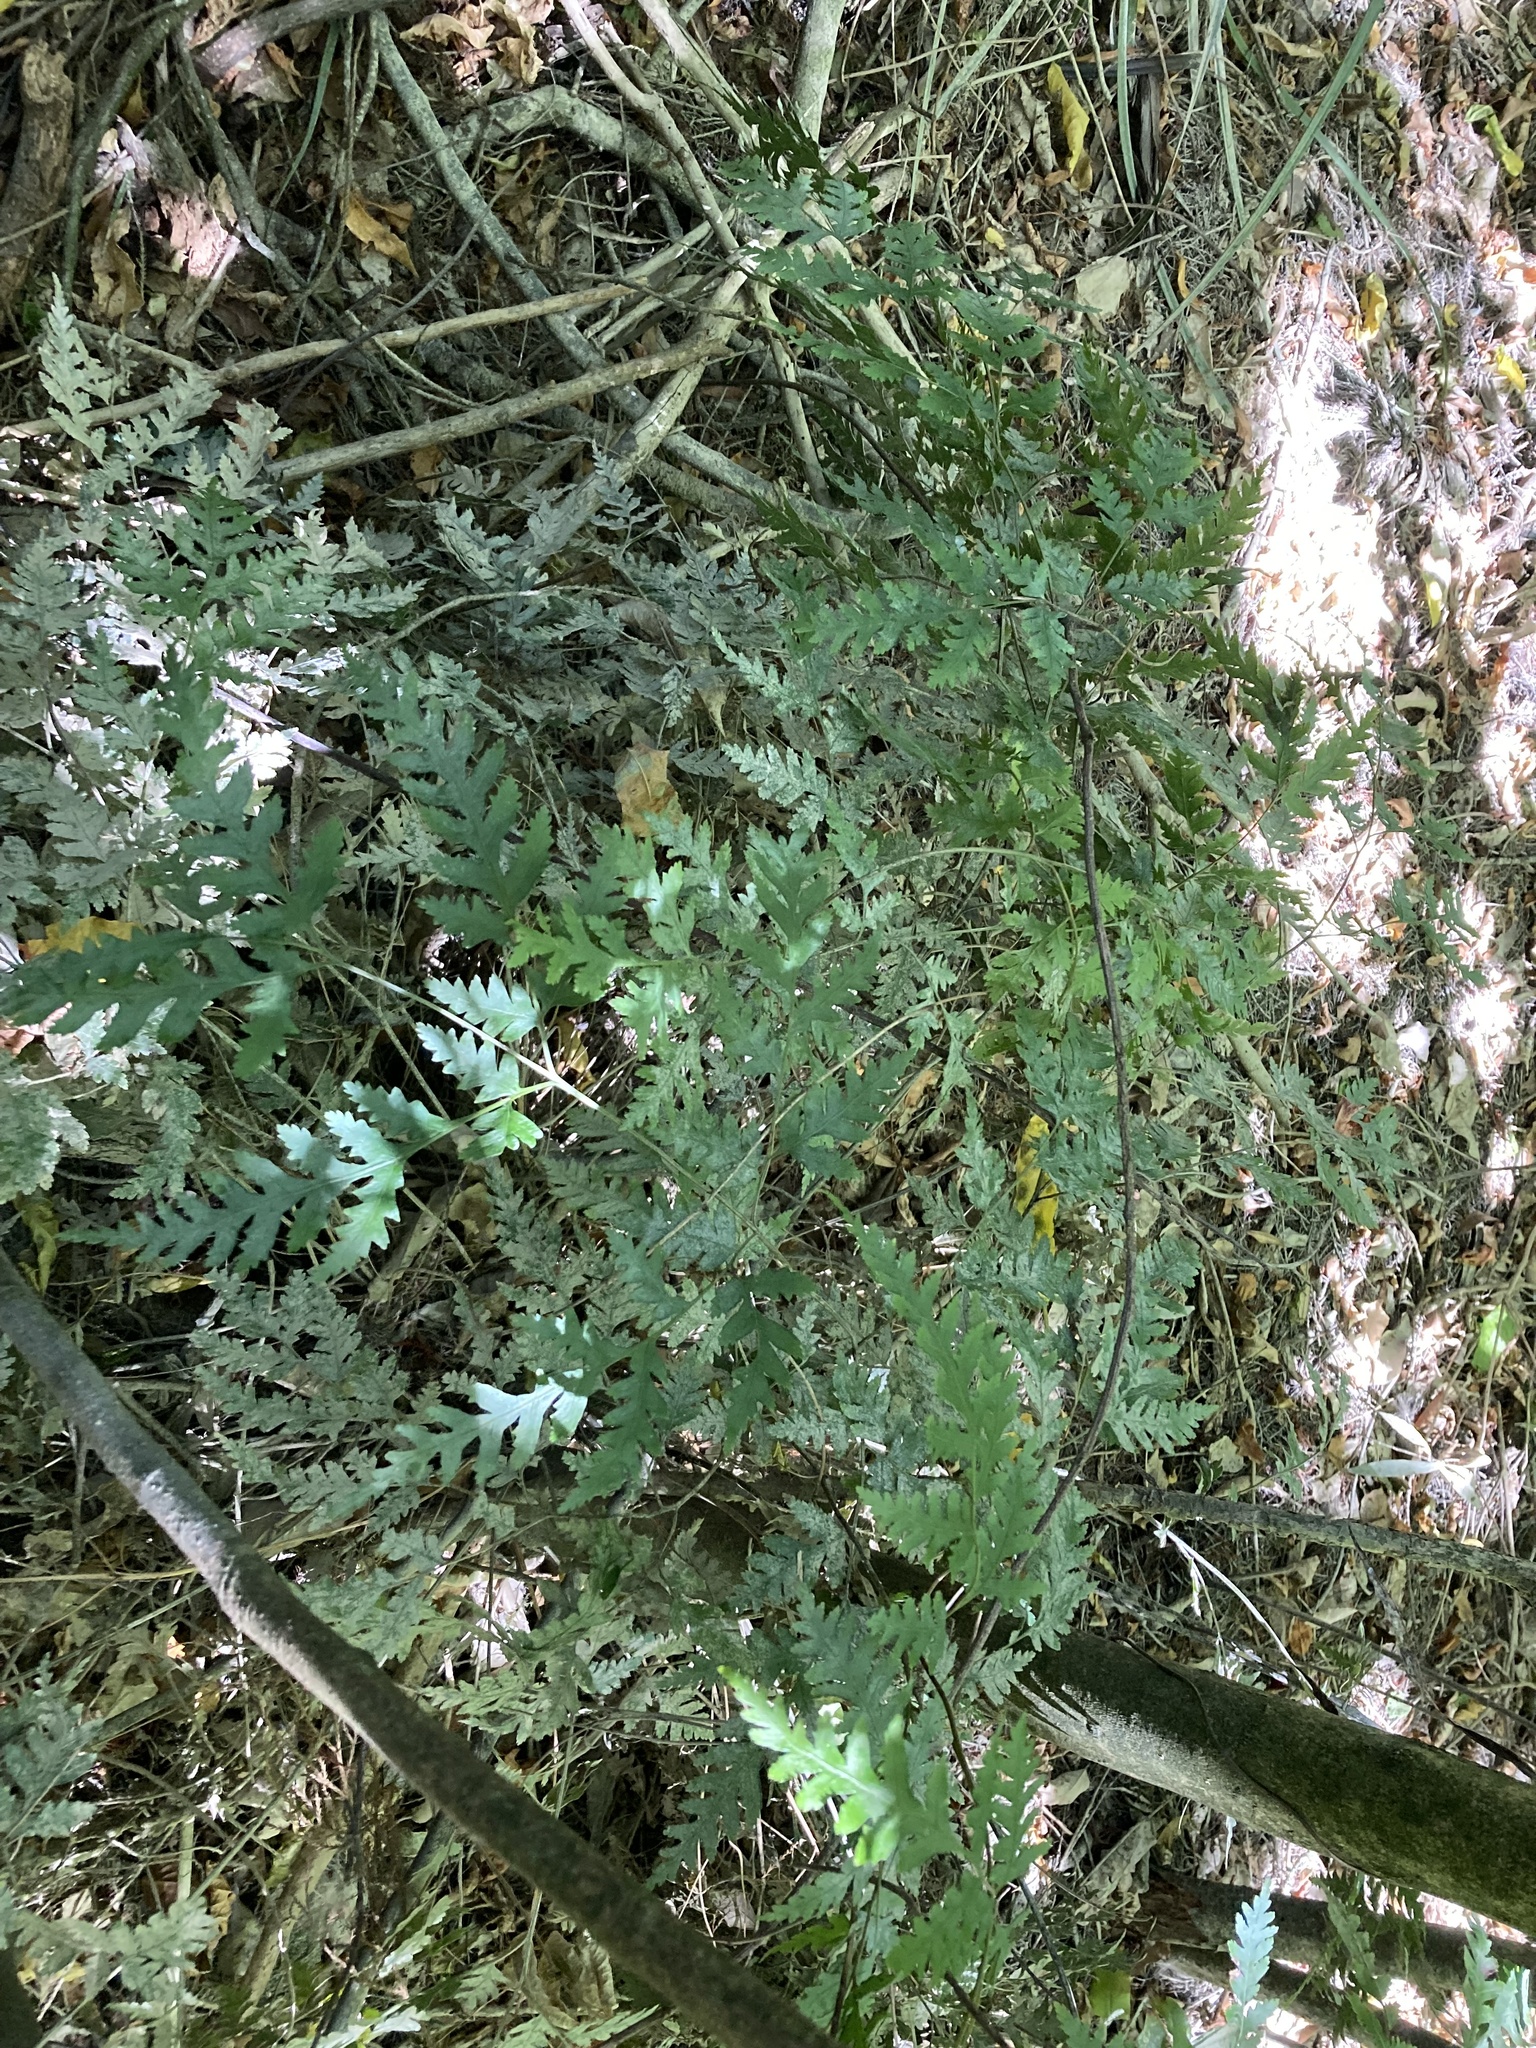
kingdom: Plantae
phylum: Tracheophyta
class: Polypodiopsida
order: Polypodiales
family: Pteridaceae
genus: Pteris
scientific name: Pteris macilenta
